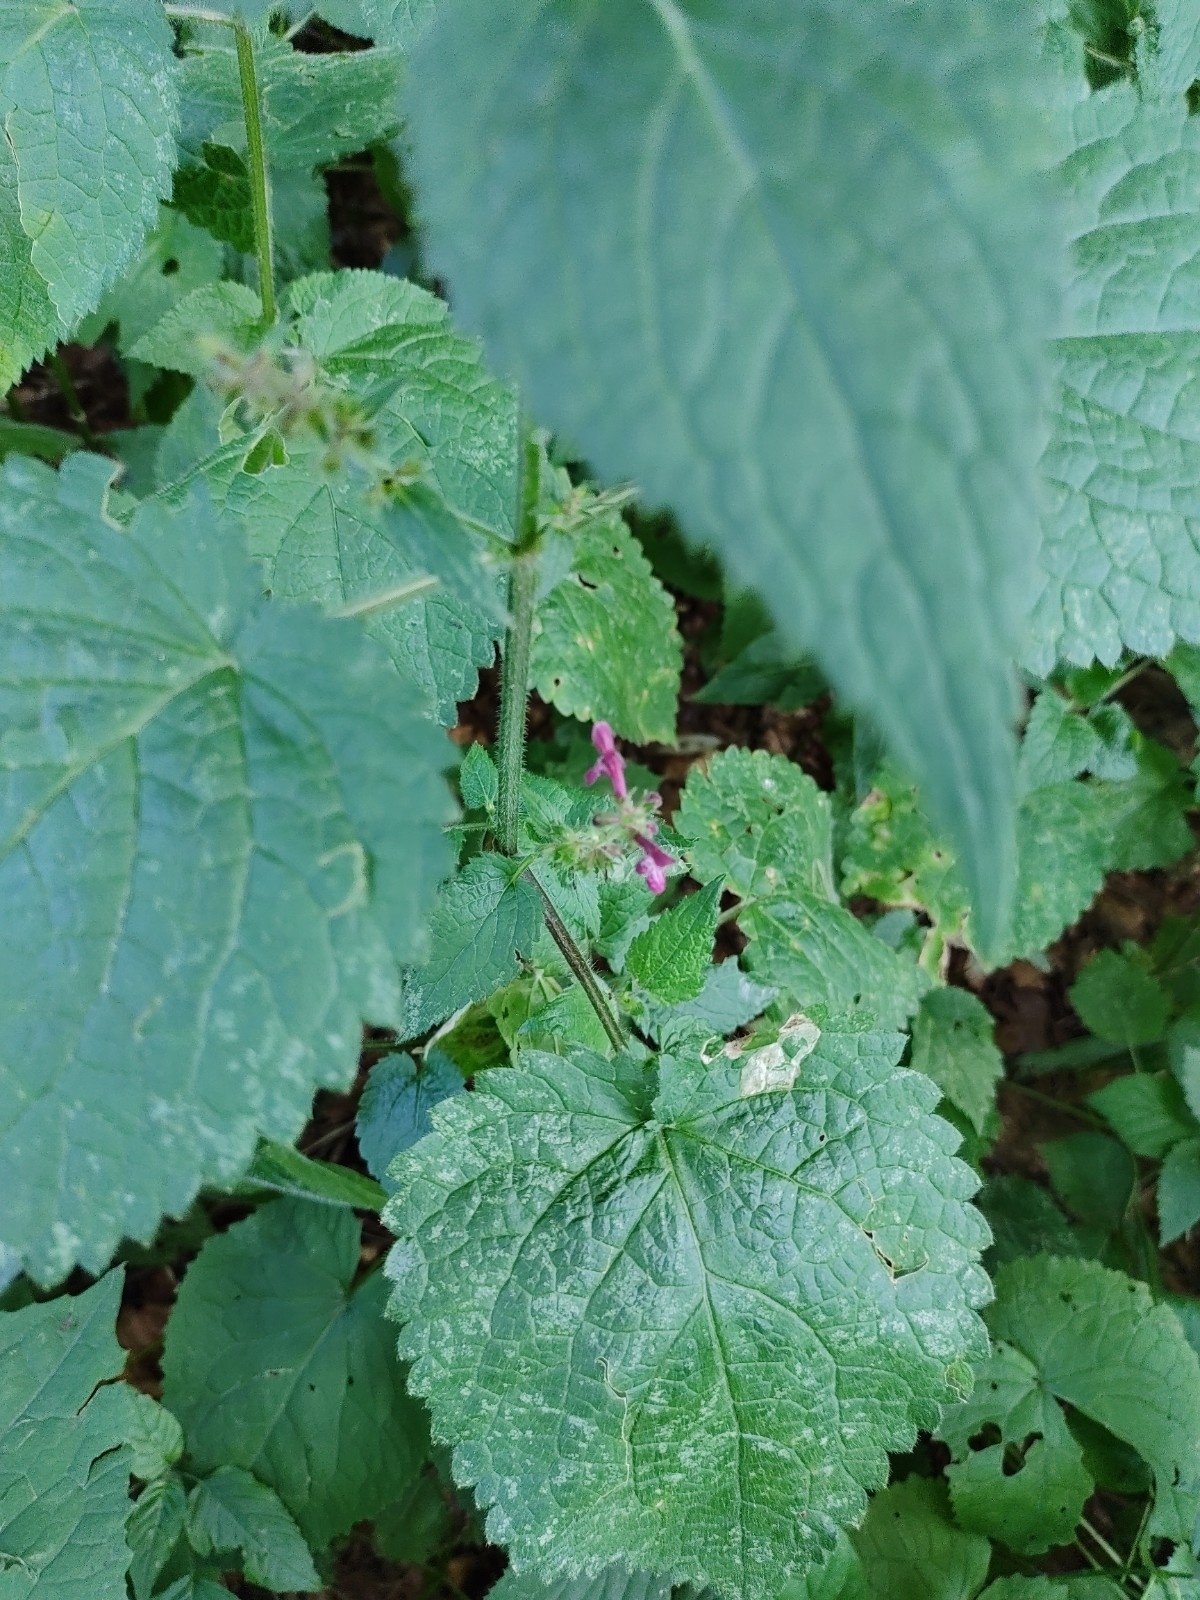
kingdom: Plantae
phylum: Tracheophyta
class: Magnoliopsida
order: Lamiales
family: Lamiaceae
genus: Stachys
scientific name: Stachys sylvatica
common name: Hedge woundwort
